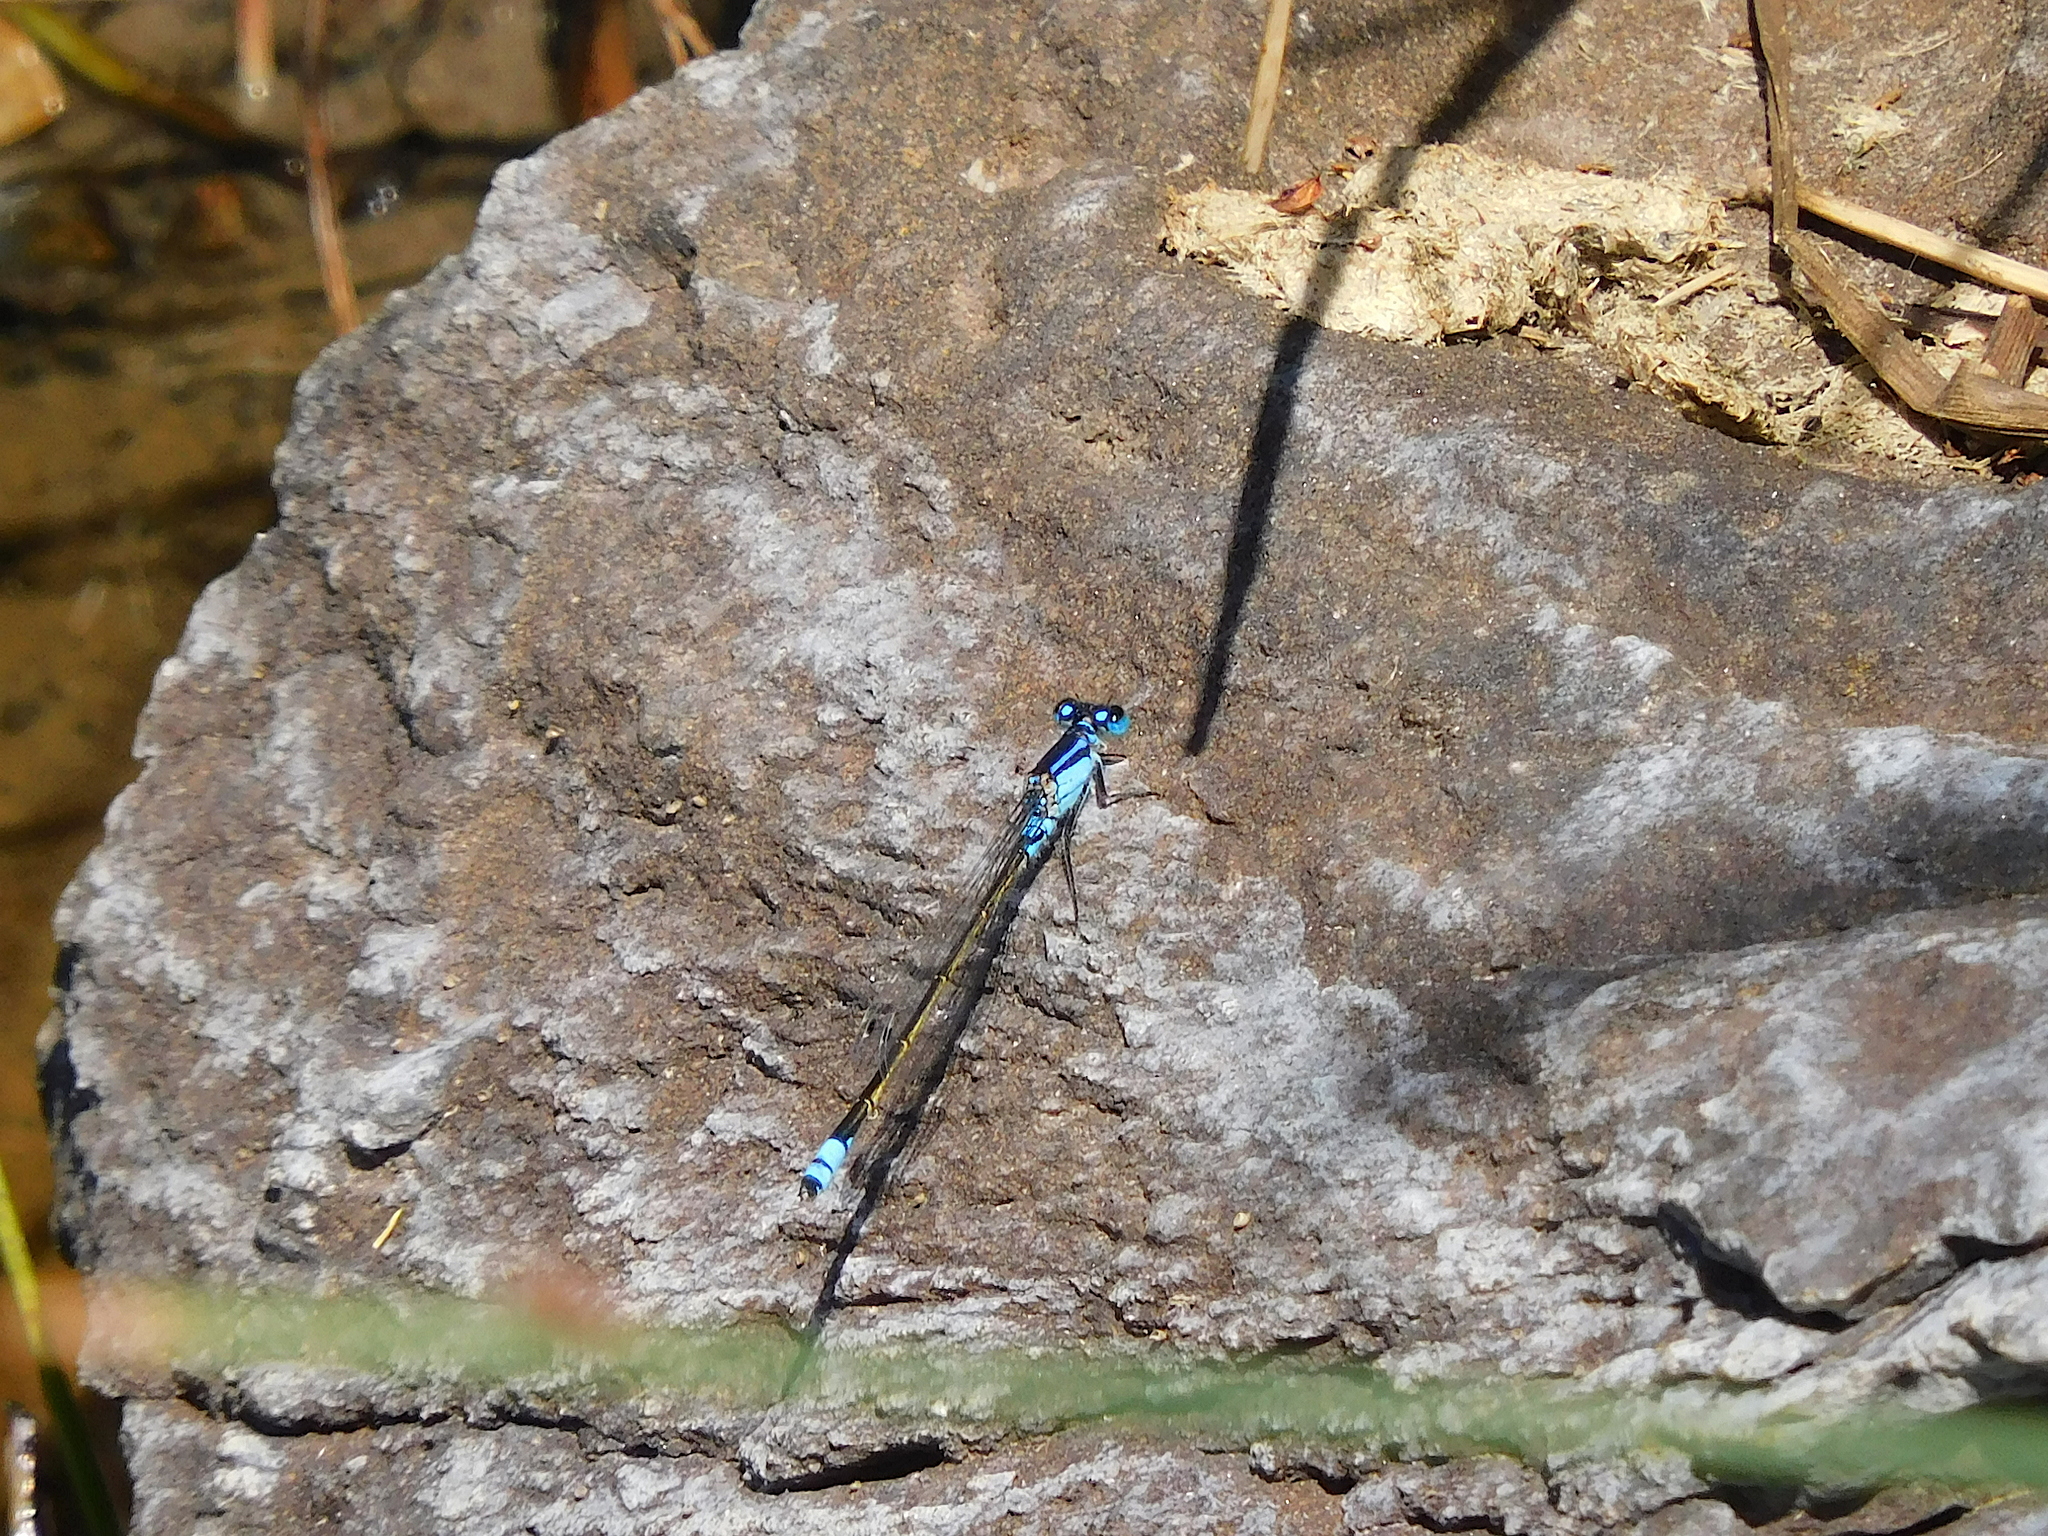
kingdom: Animalia
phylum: Arthropoda
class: Insecta
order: Odonata
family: Coenagrionidae
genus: Ischnura
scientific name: Ischnura heterosticta
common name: Common bluetail
